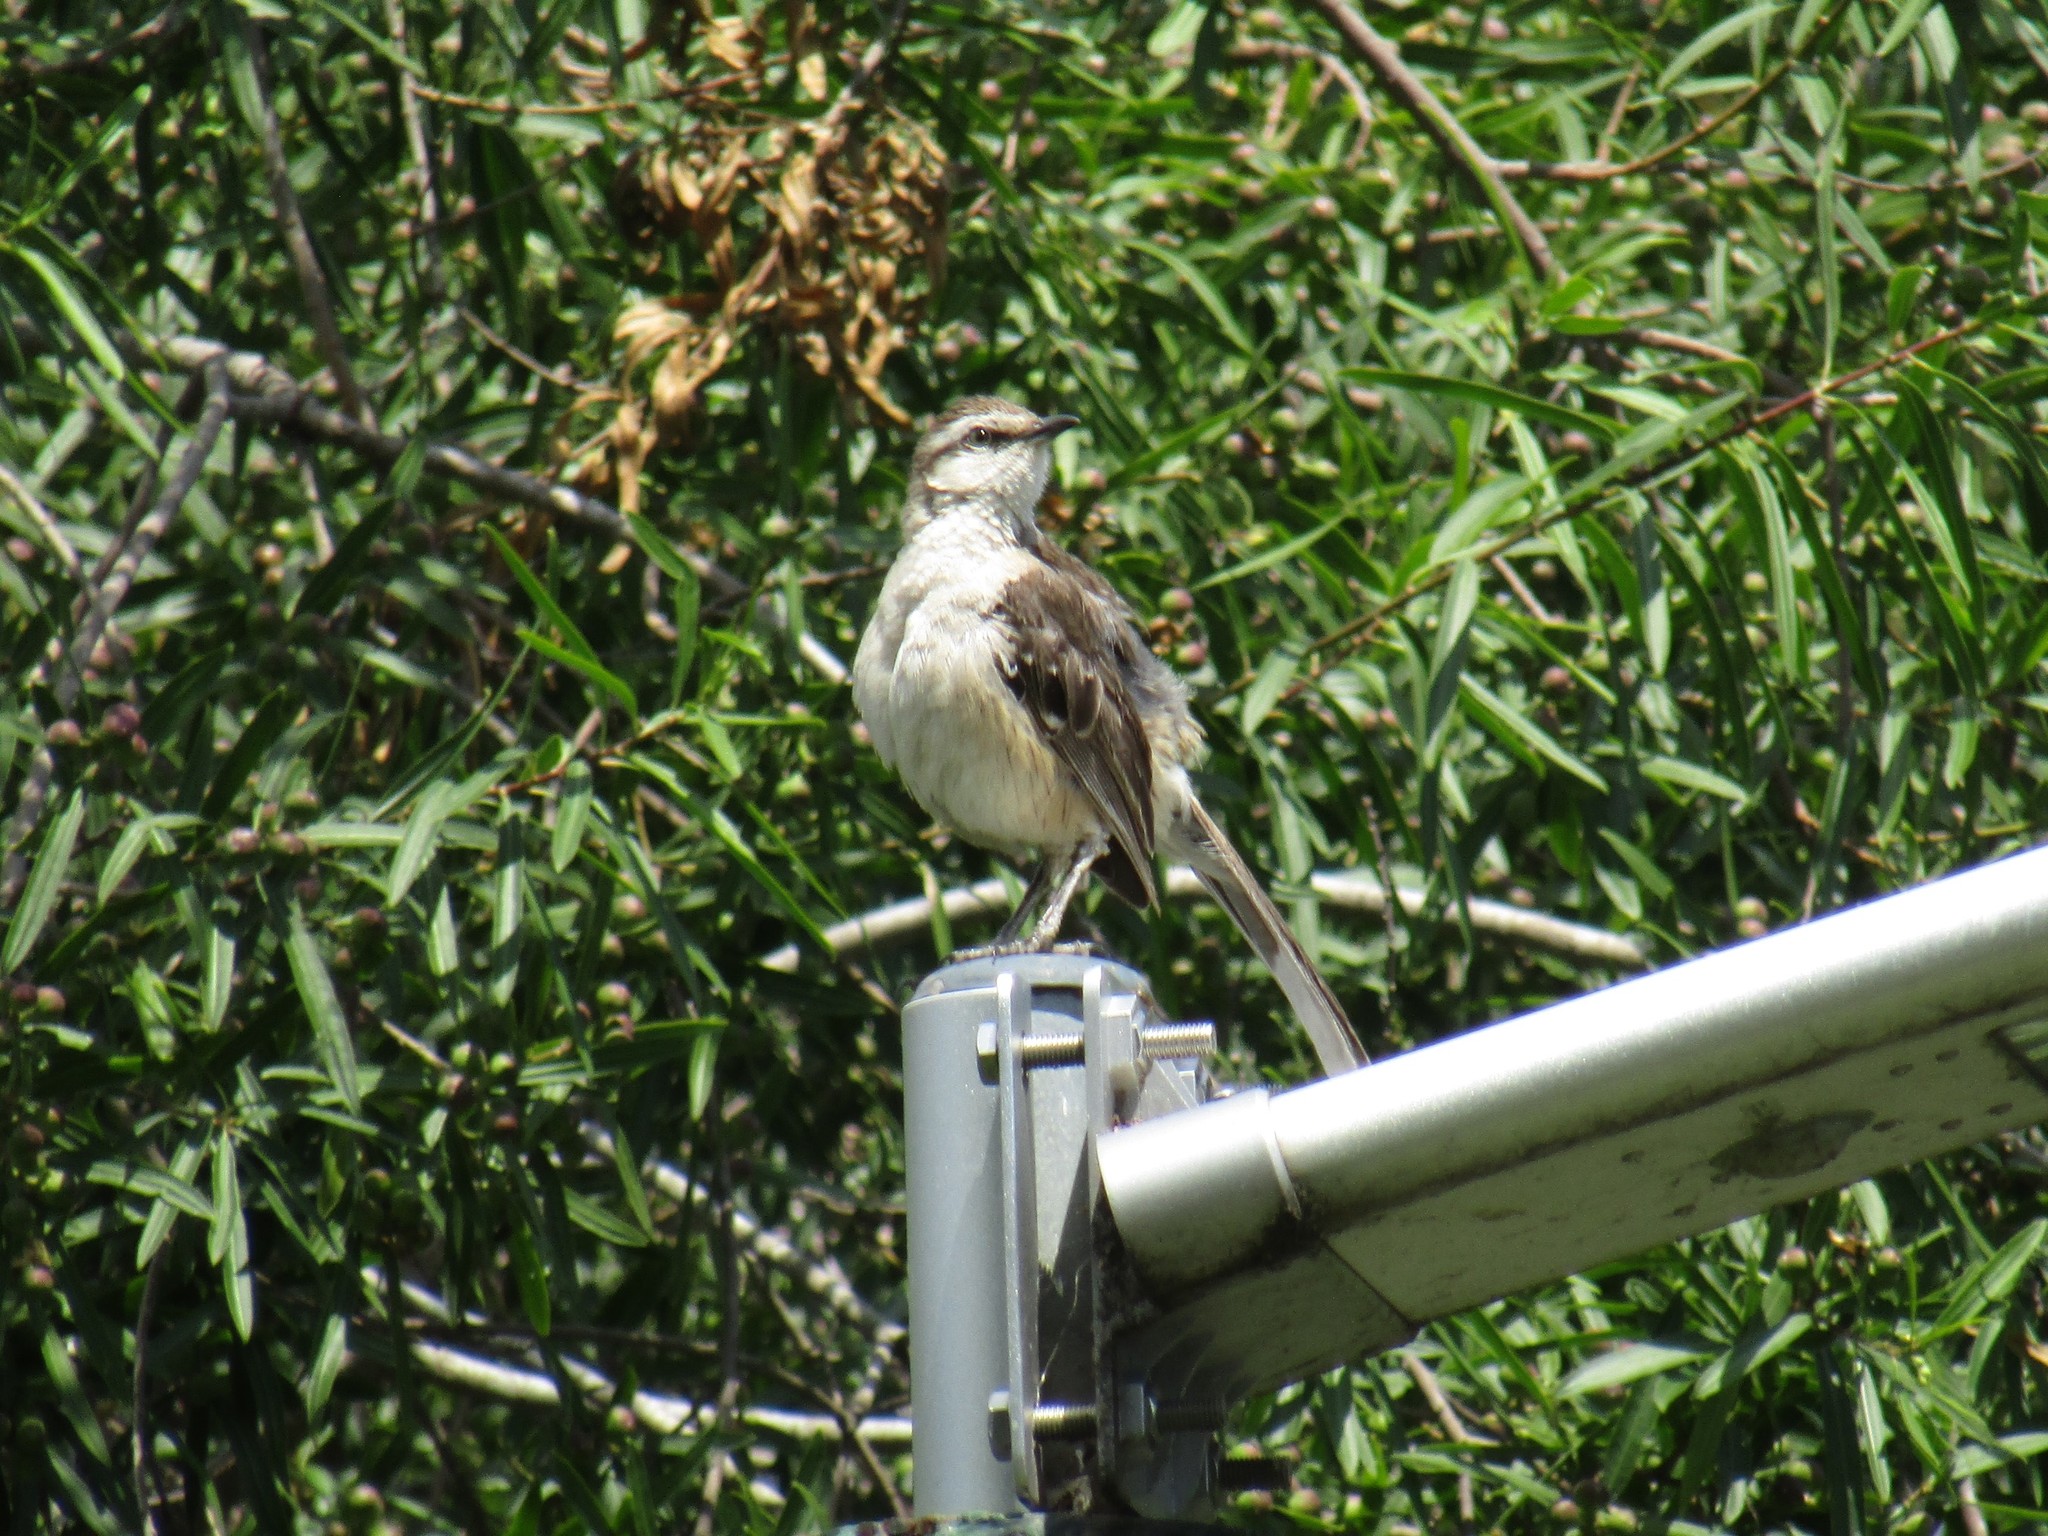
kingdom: Animalia
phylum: Chordata
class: Aves
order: Passeriformes
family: Mimidae
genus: Mimus
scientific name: Mimus saturninus
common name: Chalk-browed mockingbird
